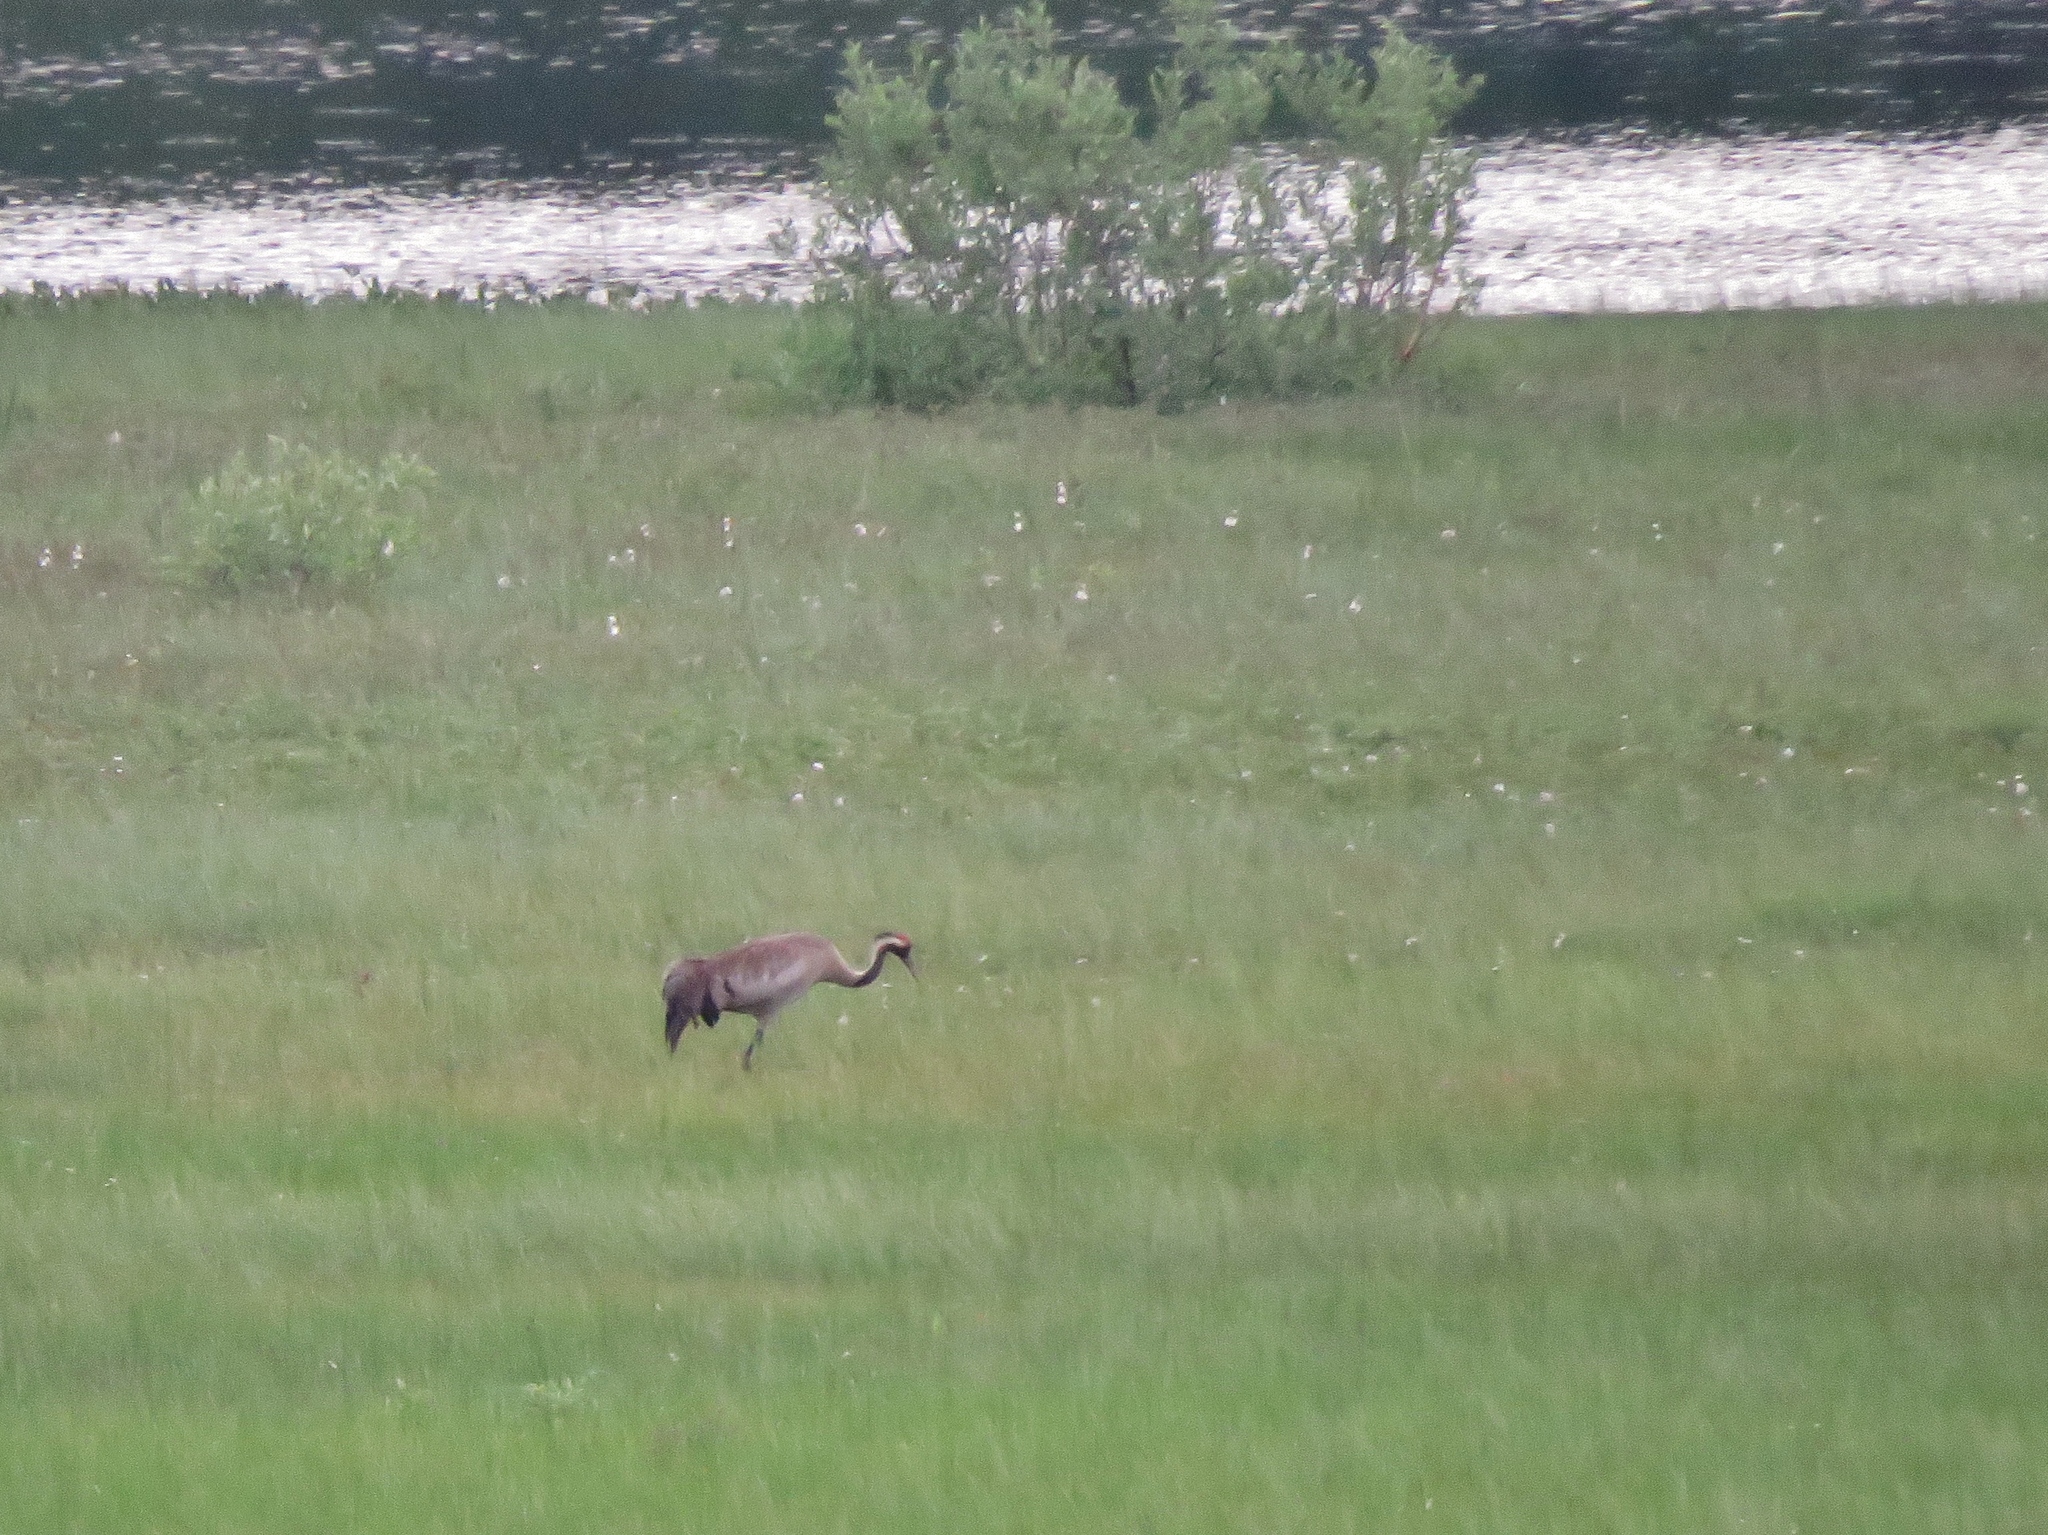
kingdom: Animalia
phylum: Chordata
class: Aves
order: Gruiformes
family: Gruidae
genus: Grus
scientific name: Grus grus
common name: Common crane
